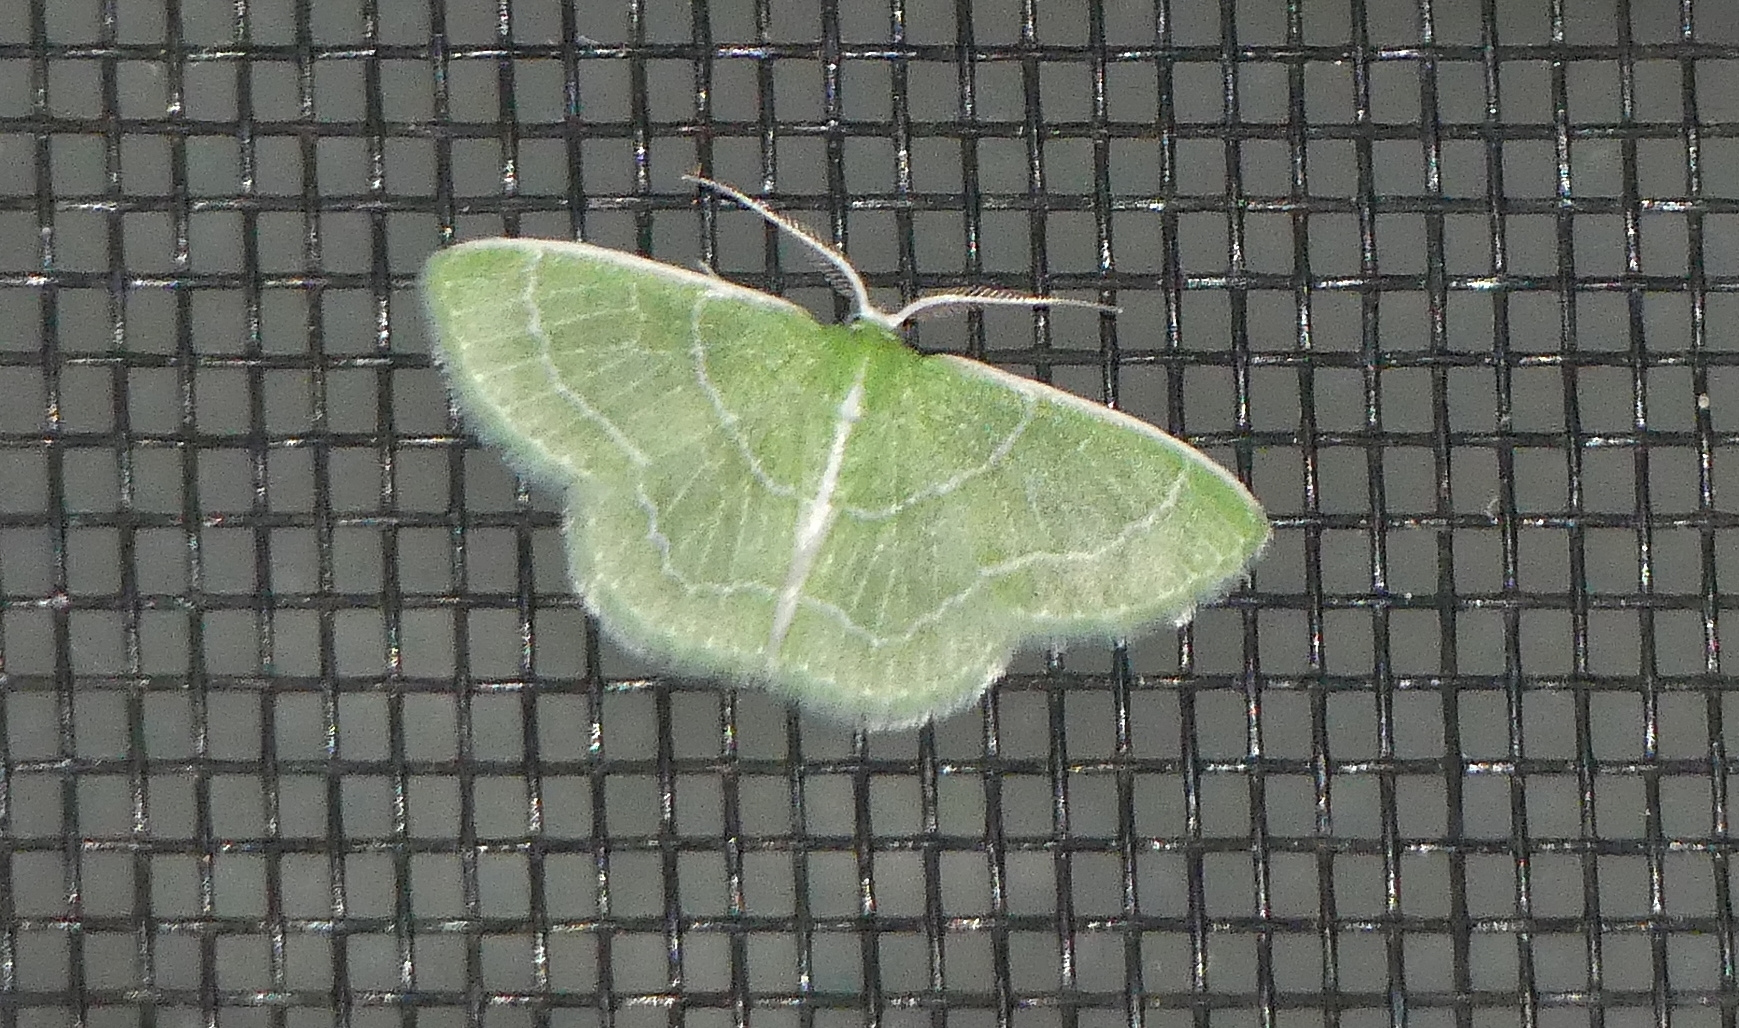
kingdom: Animalia
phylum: Arthropoda
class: Insecta
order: Lepidoptera
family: Geometridae
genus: Synchlora
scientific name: Synchlora aerata
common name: Wavy-lined emerald
